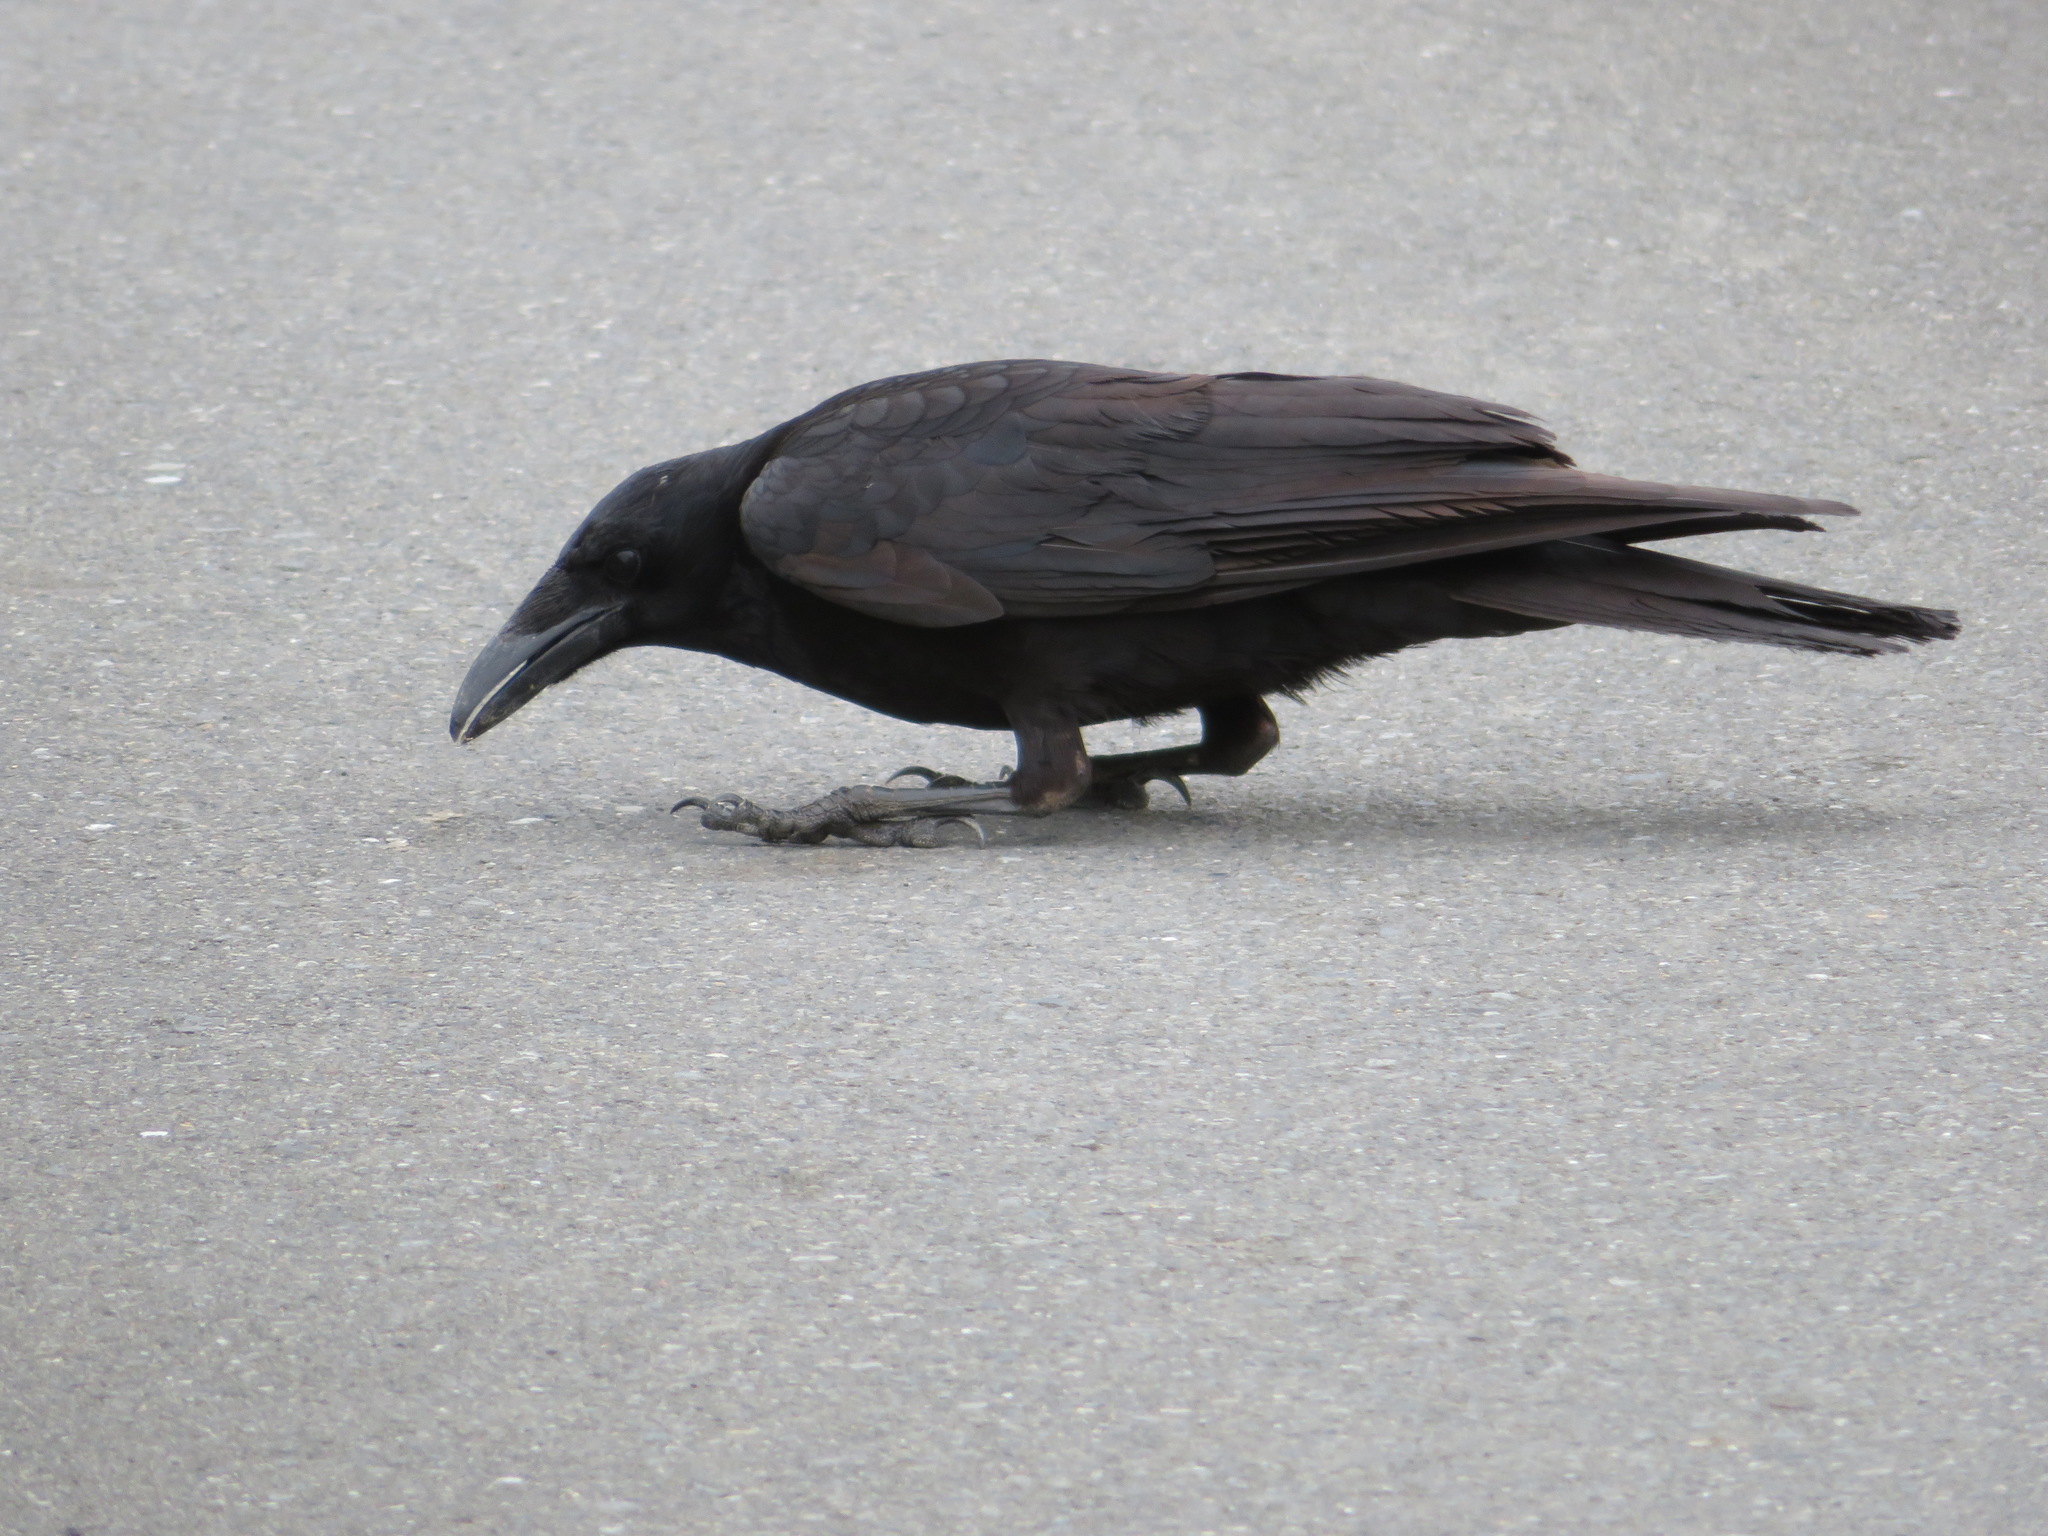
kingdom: Animalia
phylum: Chordata
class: Aves
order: Passeriformes
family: Corvidae
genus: Corvus
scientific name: Corvus corone
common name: Carrion crow
